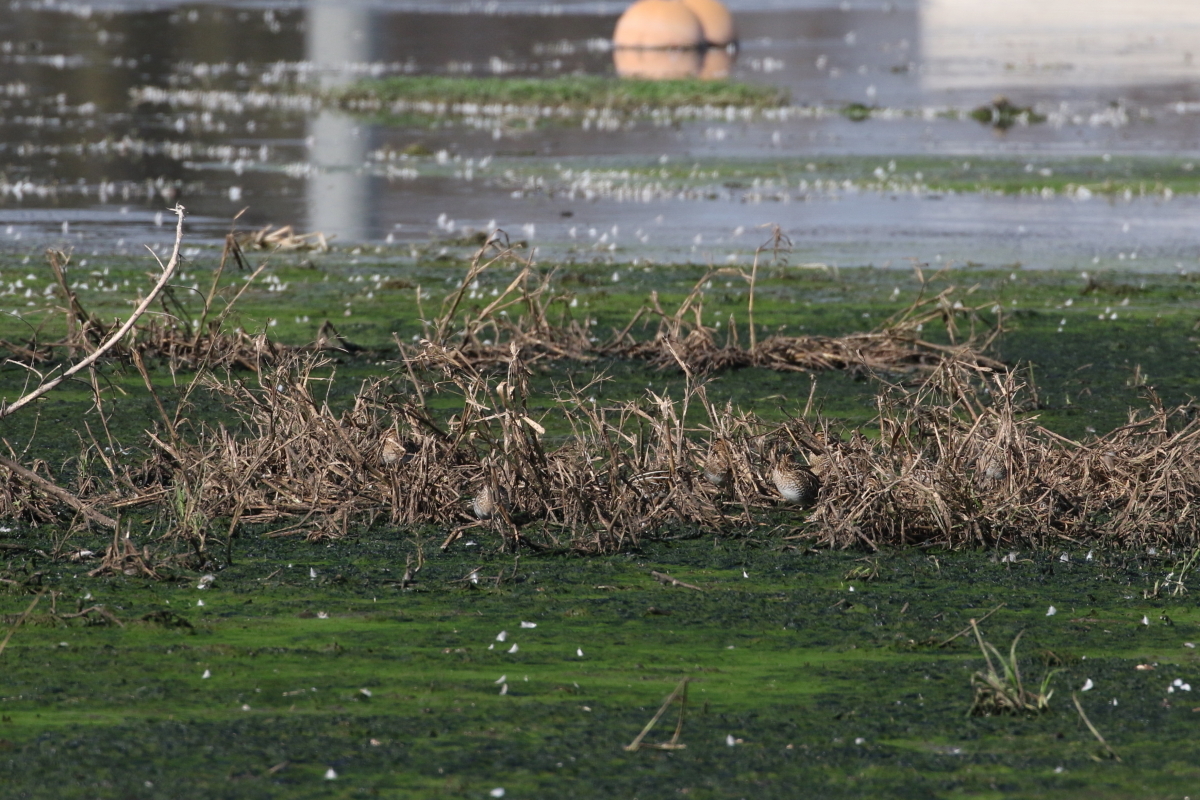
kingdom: Animalia
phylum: Chordata
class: Aves
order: Charadriiformes
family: Scolopacidae
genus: Gallinago
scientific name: Gallinago delicata
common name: Wilson's snipe
